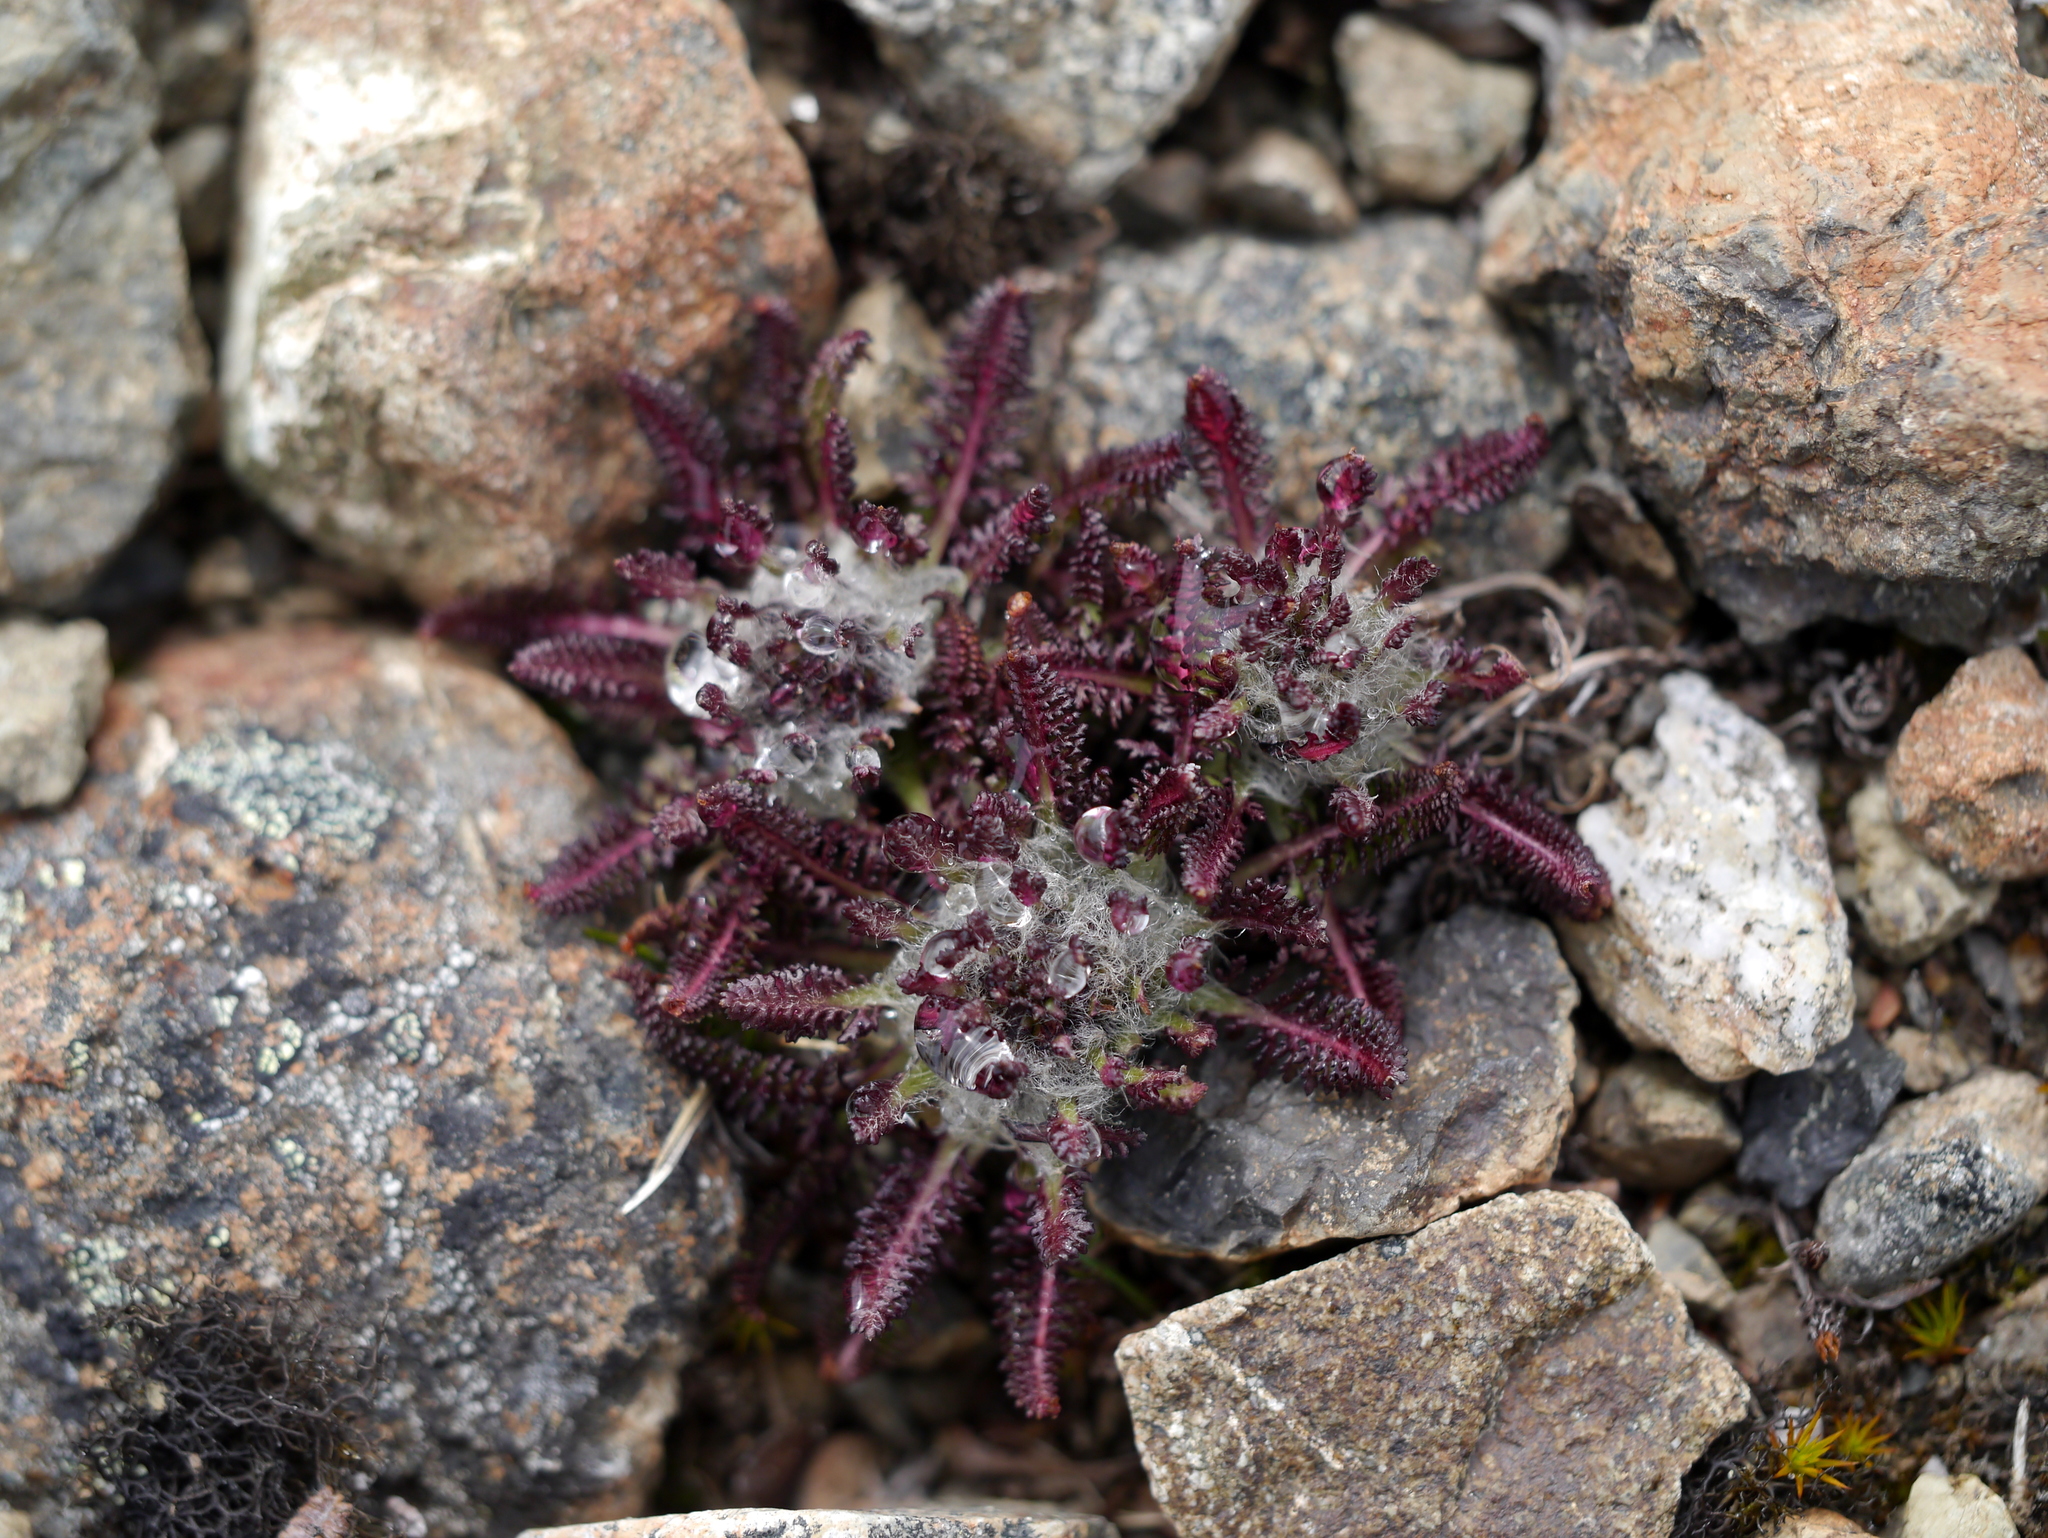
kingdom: Plantae
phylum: Tracheophyta
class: Magnoliopsida
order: Lamiales
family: Orobanchaceae
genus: Pedicularis
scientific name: Pedicularis lanata
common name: Woolly lousewort
